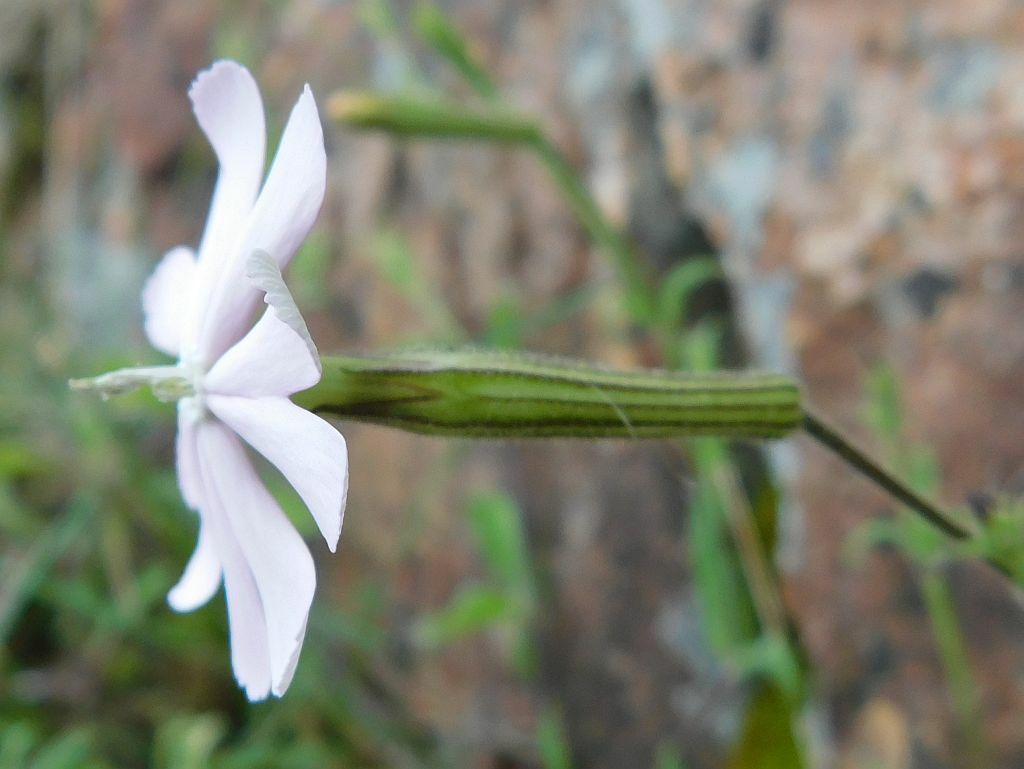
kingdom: Plantae
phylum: Tracheophyta
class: Magnoliopsida
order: Caryophyllales
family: Caryophyllaceae
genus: Silene
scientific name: Silene undulata
